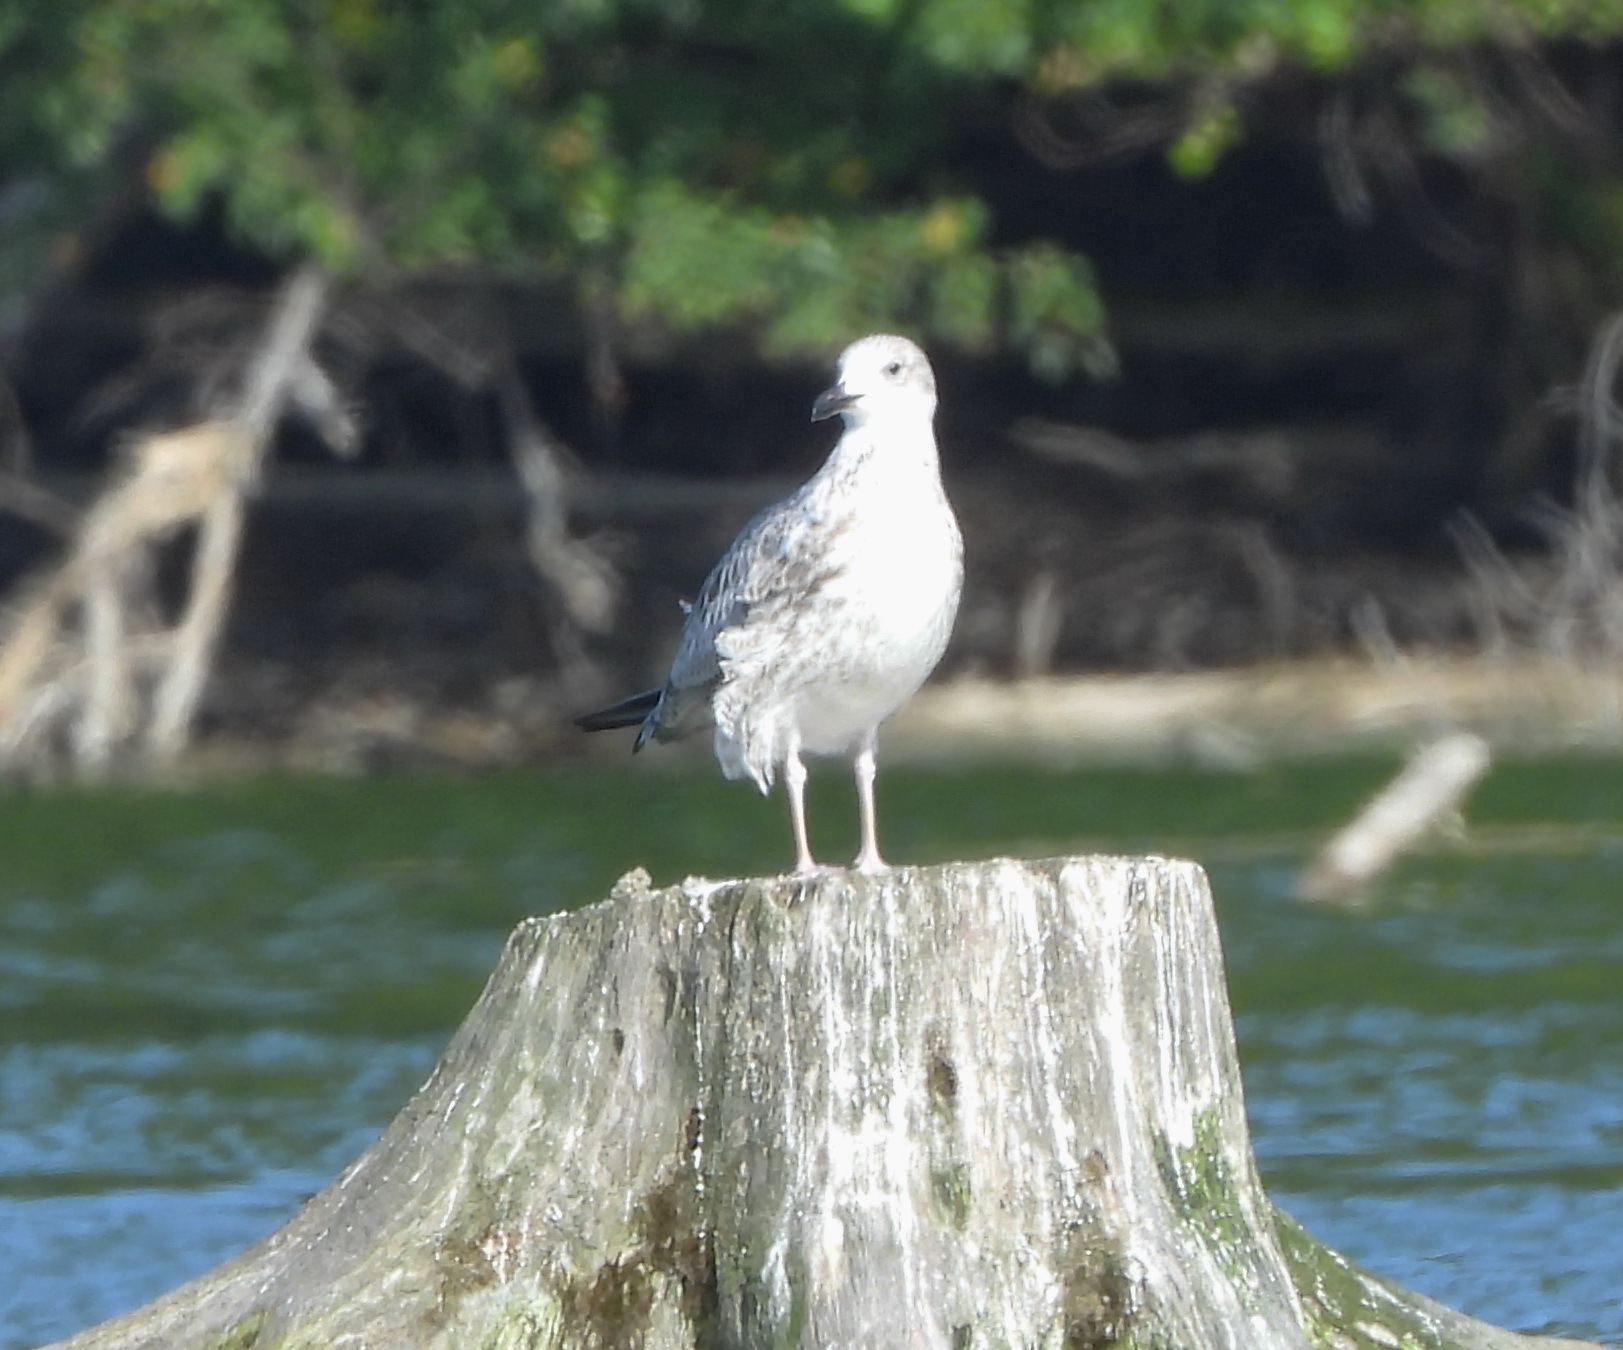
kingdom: Animalia
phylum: Chordata
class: Aves
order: Charadriiformes
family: Laridae
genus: Larus
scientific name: Larus canus
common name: Mew gull
